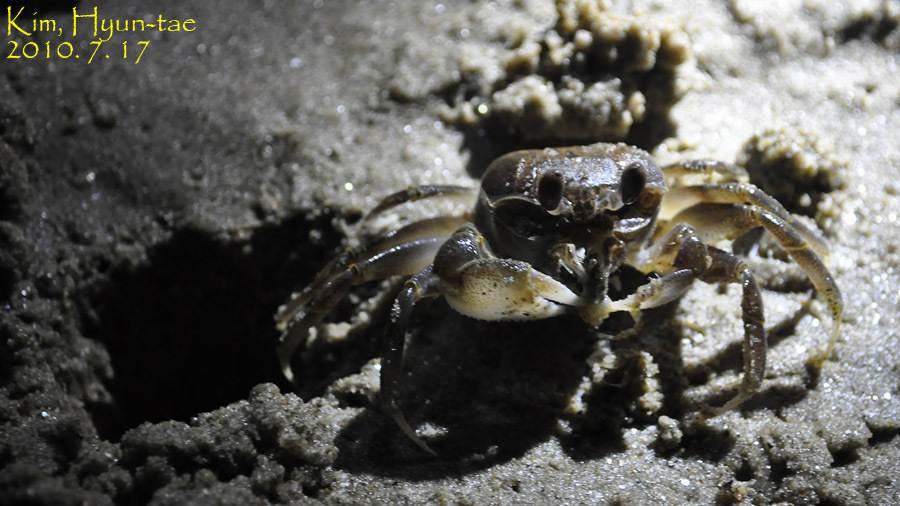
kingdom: Animalia
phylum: Arthropoda
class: Malacostraca
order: Decapoda
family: Ocypodidae
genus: Ocypode
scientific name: Ocypode stimpsoni
